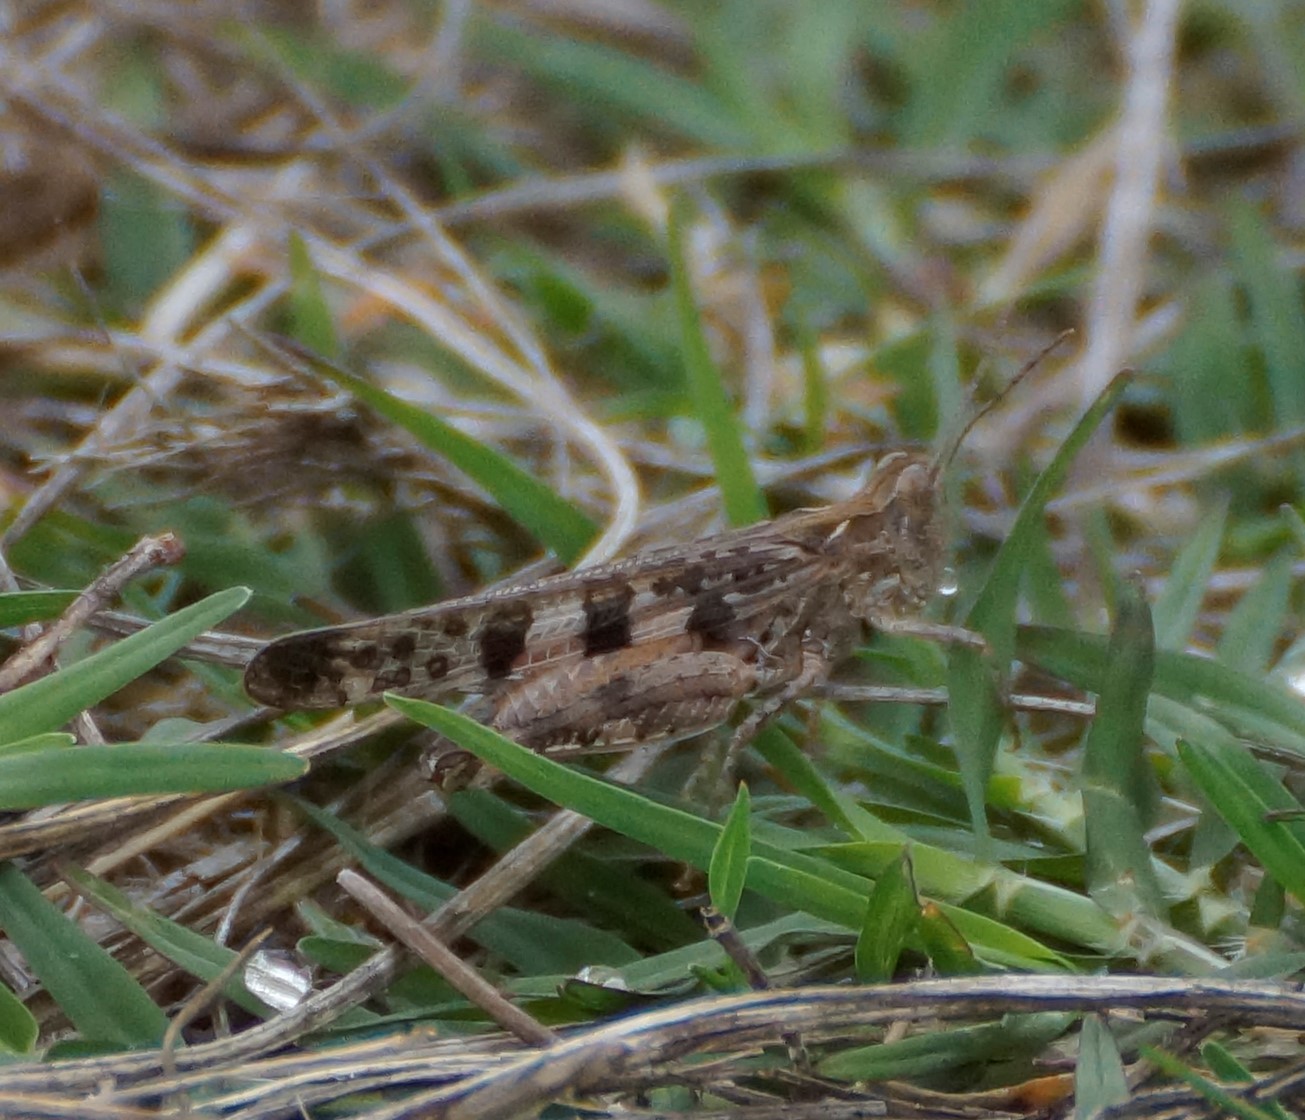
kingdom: Animalia
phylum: Arthropoda
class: Insecta
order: Orthoptera
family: Acrididae
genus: Chortoicetes
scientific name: Chortoicetes terminifera
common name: Australian plague locust
